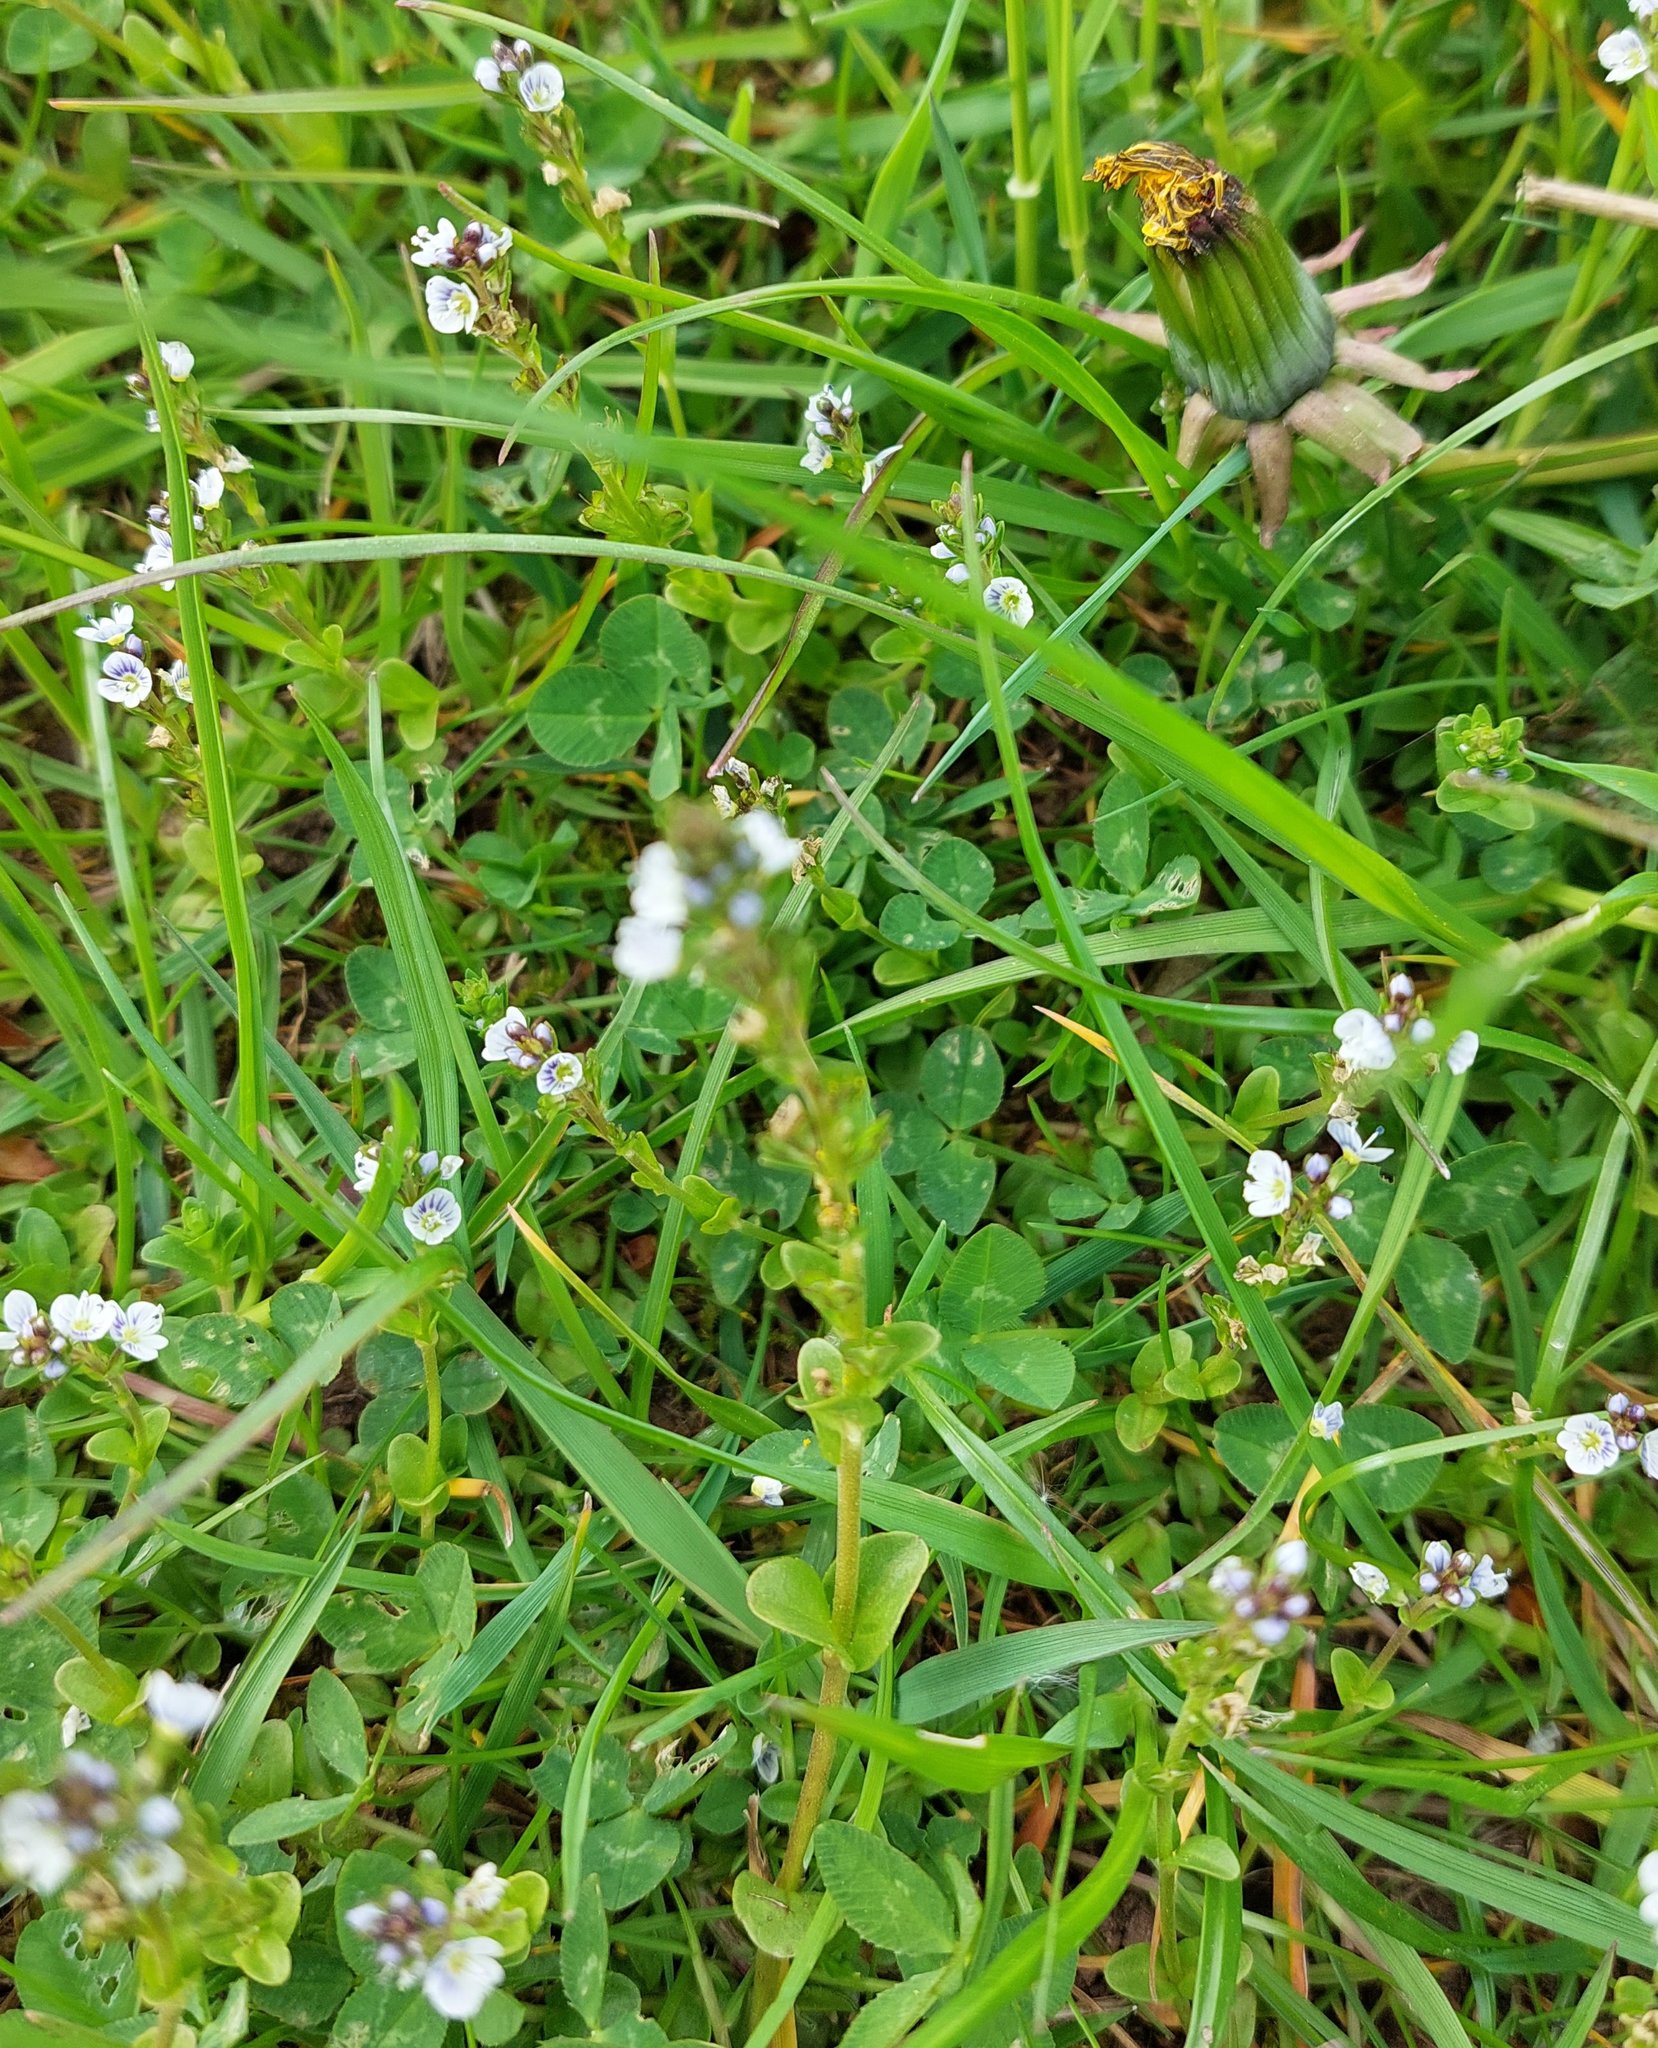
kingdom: Plantae
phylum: Tracheophyta
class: Magnoliopsida
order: Lamiales
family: Plantaginaceae
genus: Veronica
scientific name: Veronica serpyllifolia
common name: Thyme-leaved speedwell
